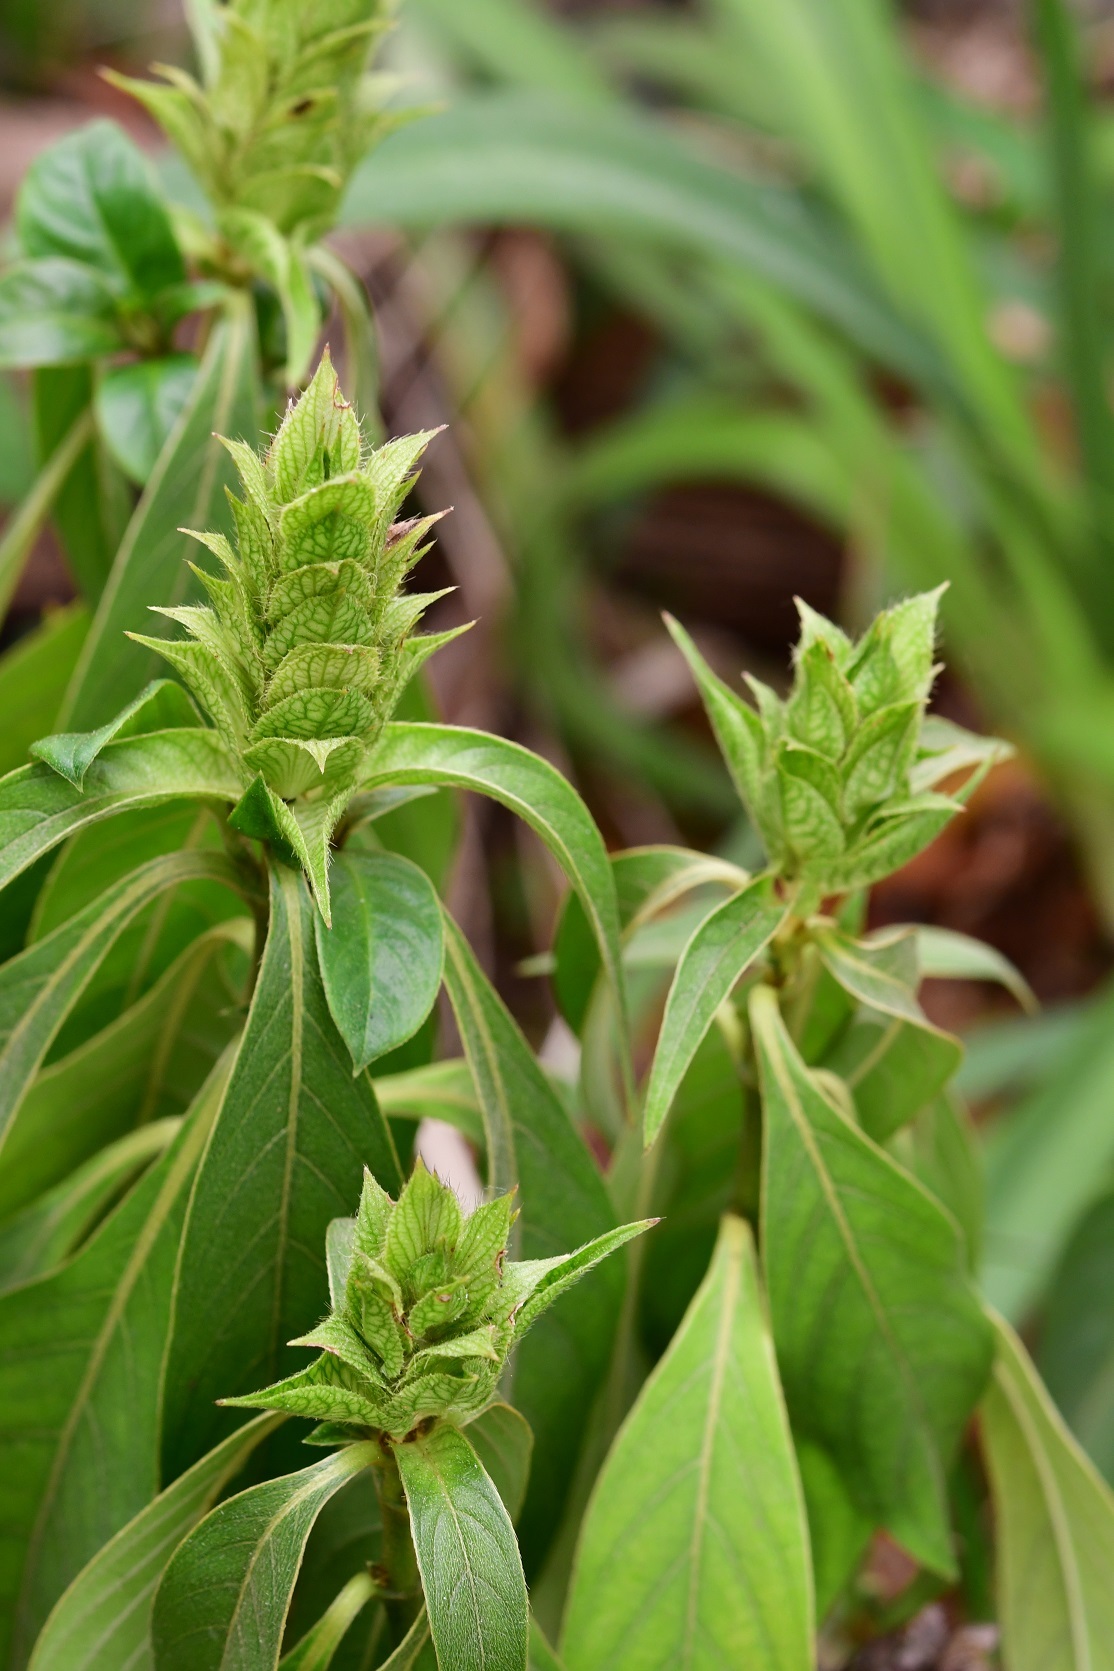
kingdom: Plantae
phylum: Tracheophyta
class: Magnoliopsida
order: Lamiales
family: Acanthaceae
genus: Barleria
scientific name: Barleria oenotheroides
